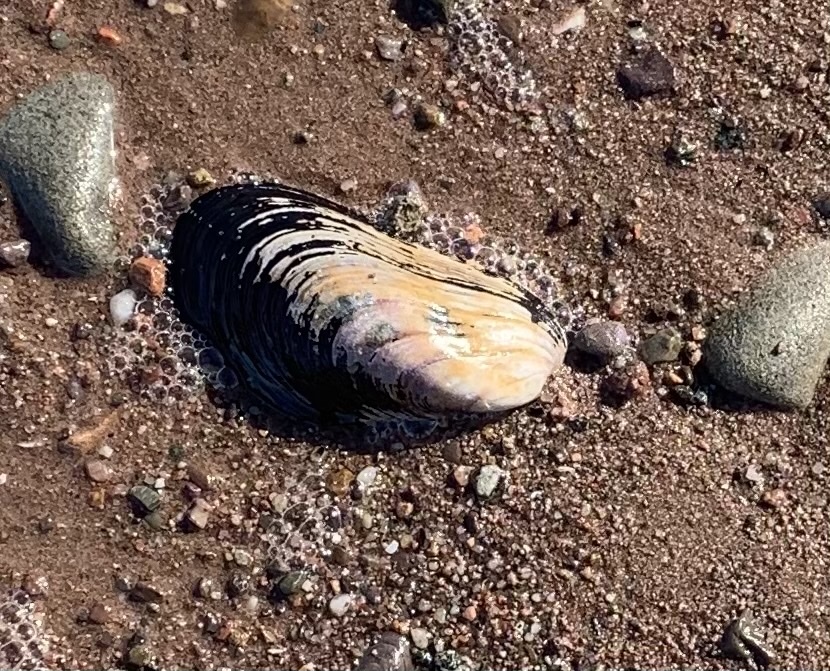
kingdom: Animalia
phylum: Mollusca
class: Bivalvia
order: Mytilida
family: Mytilidae
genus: Modiolus
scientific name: Modiolus modiolus
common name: Horse-mussel
